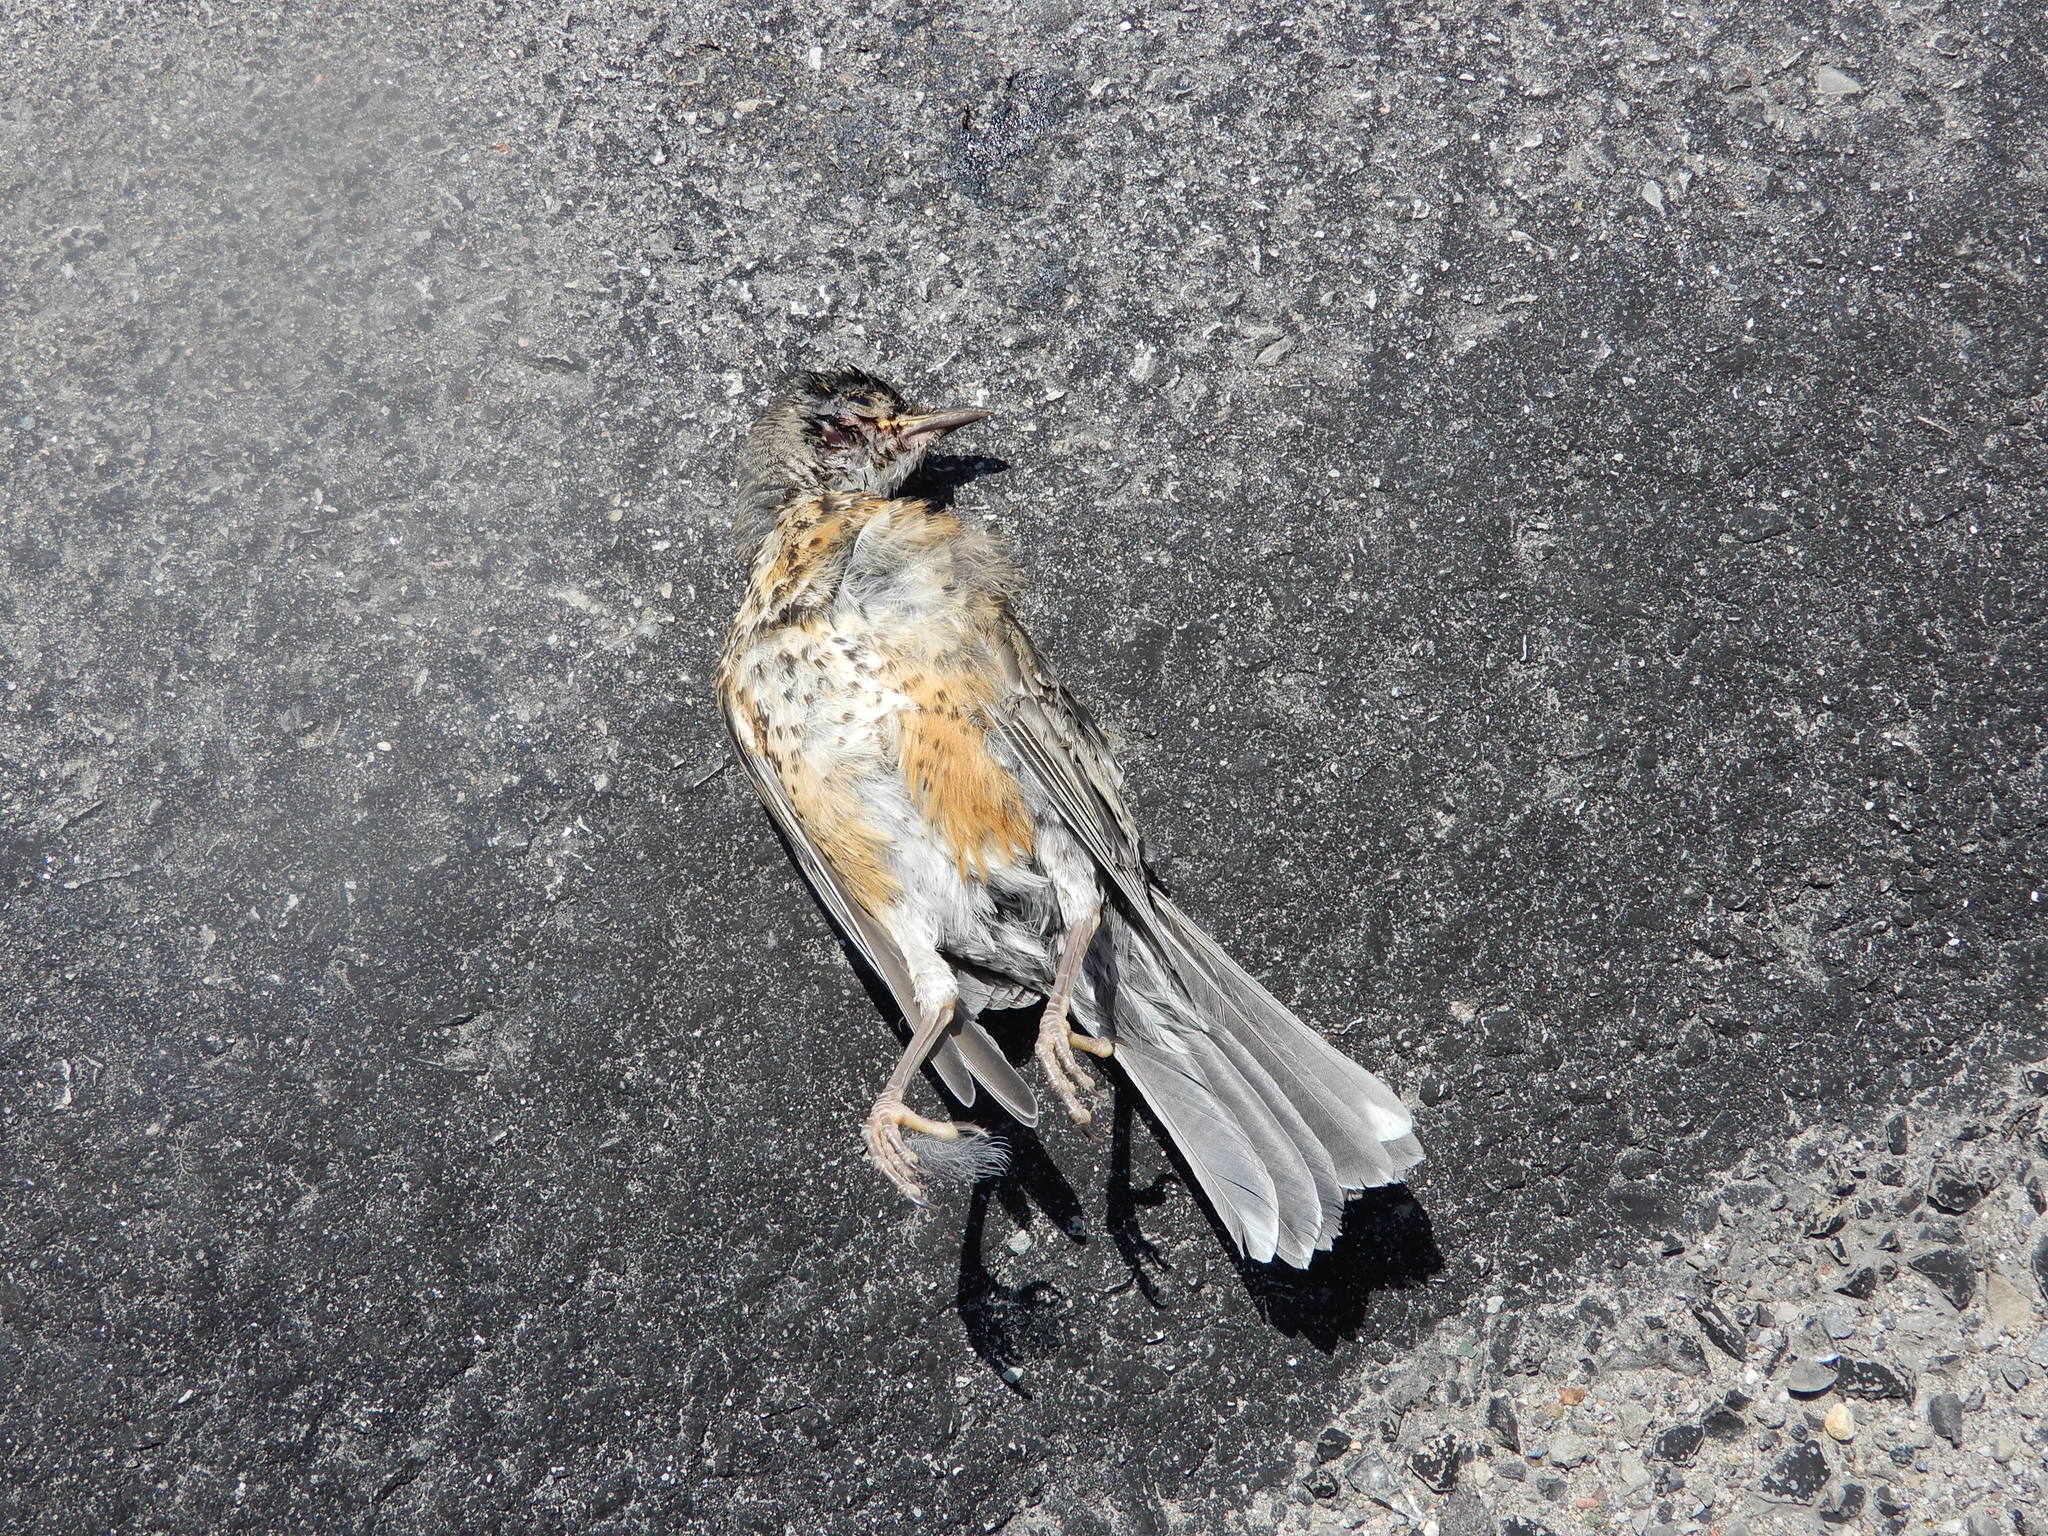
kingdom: Animalia
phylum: Chordata
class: Aves
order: Passeriformes
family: Turdidae
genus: Turdus
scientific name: Turdus migratorius
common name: American robin
